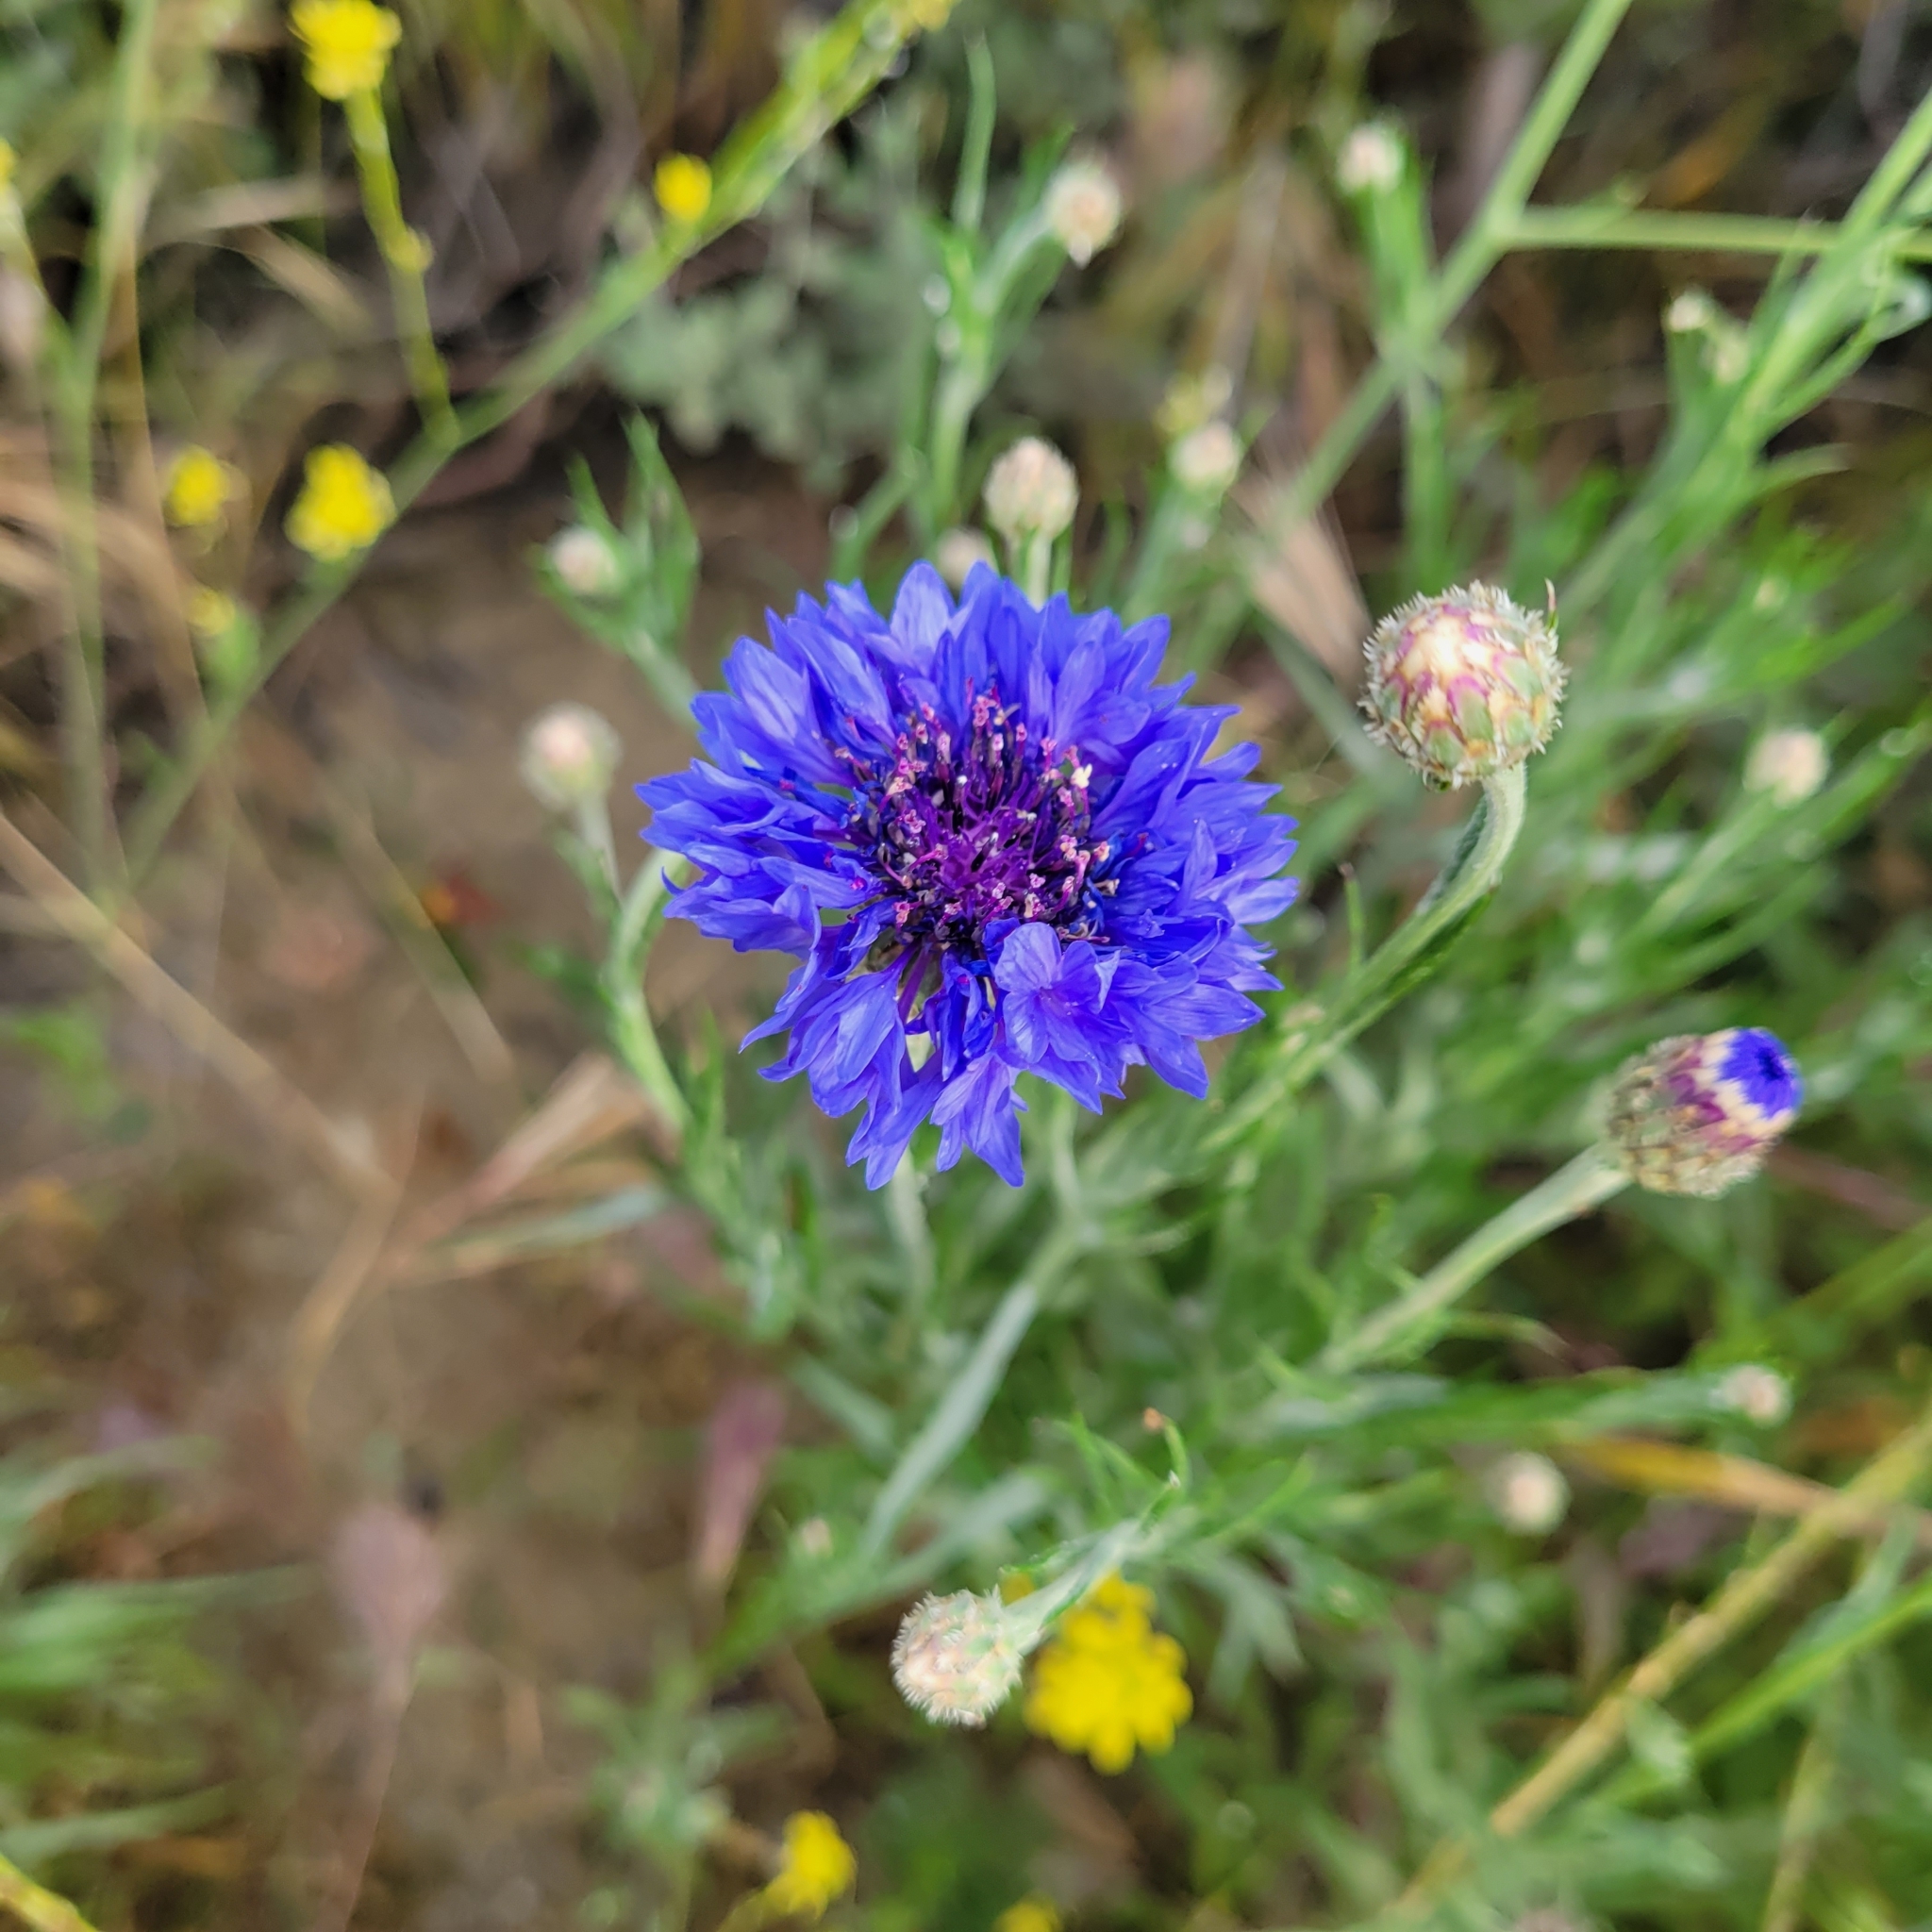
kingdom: Plantae
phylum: Tracheophyta
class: Magnoliopsida
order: Asterales
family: Asteraceae
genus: Centaurea
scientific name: Centaurea cyanus
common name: Cornflower
